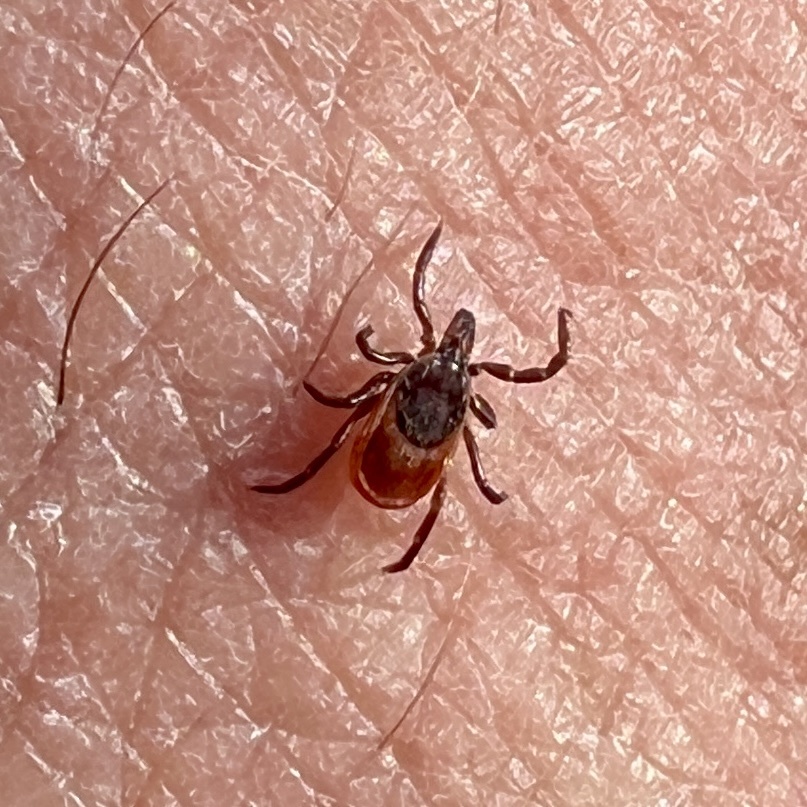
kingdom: Animalia
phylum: Arthropoda
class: Arachnida
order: Ixodida
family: Ixodidae
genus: Ixodes
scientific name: Ixodes scapularis
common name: Black legged tick
